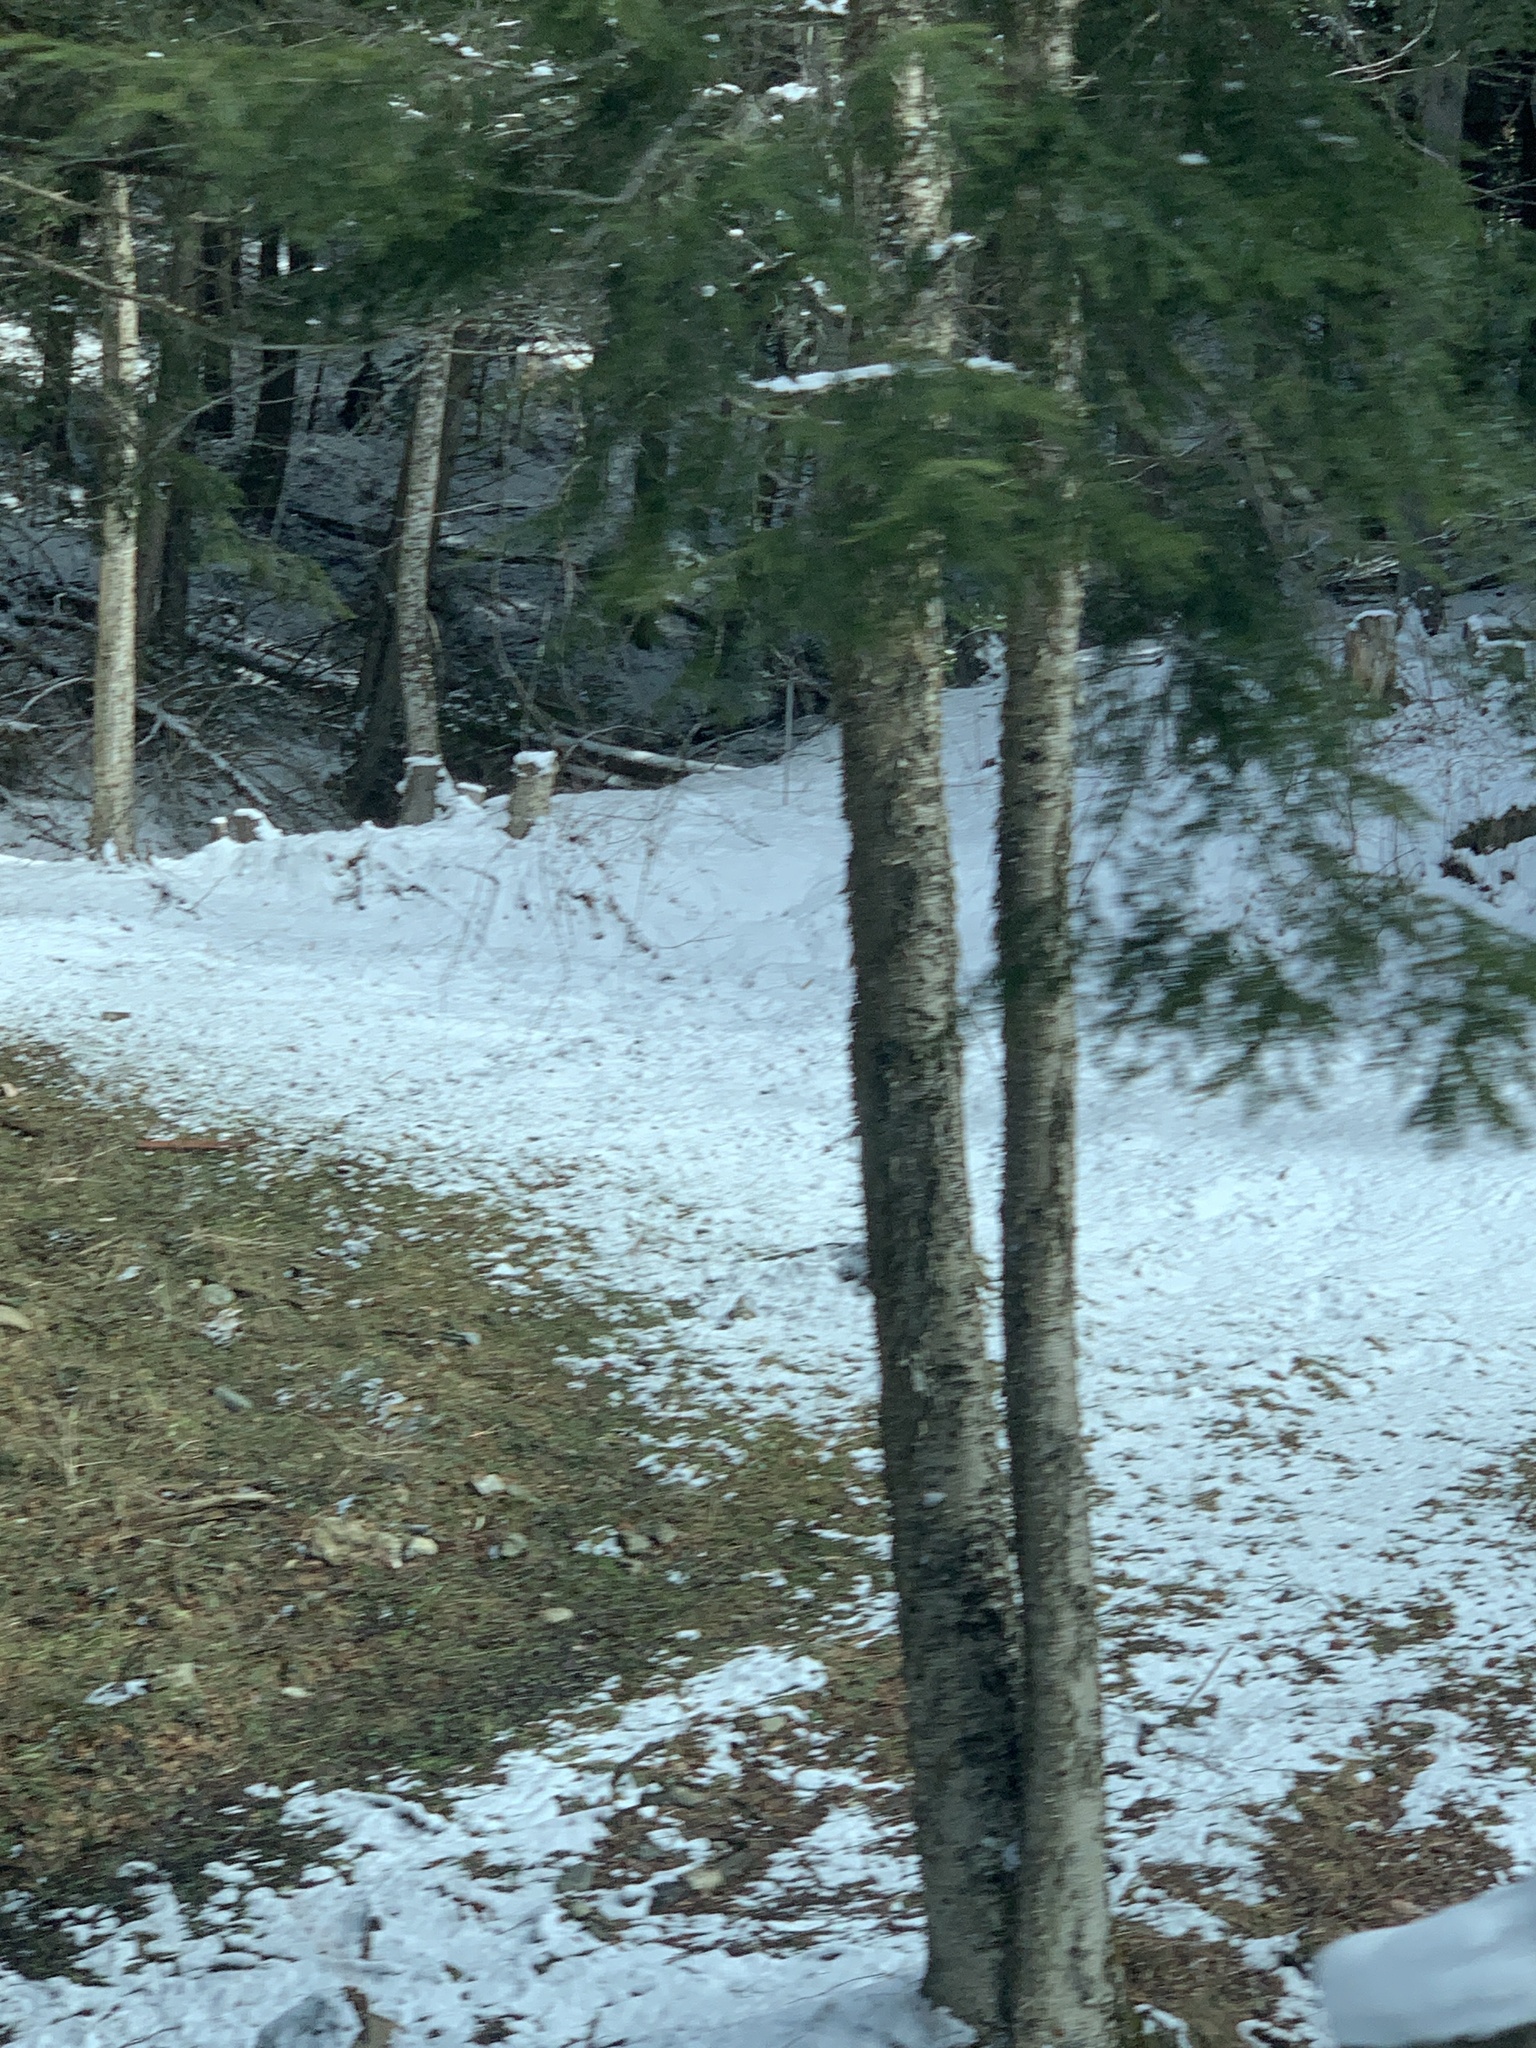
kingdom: Plantae
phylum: Tracheophyta
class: Magnoliopsida
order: Fagales
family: Betulaceae
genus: Betula
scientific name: Betula alleghaniensis
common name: Yellow birch
